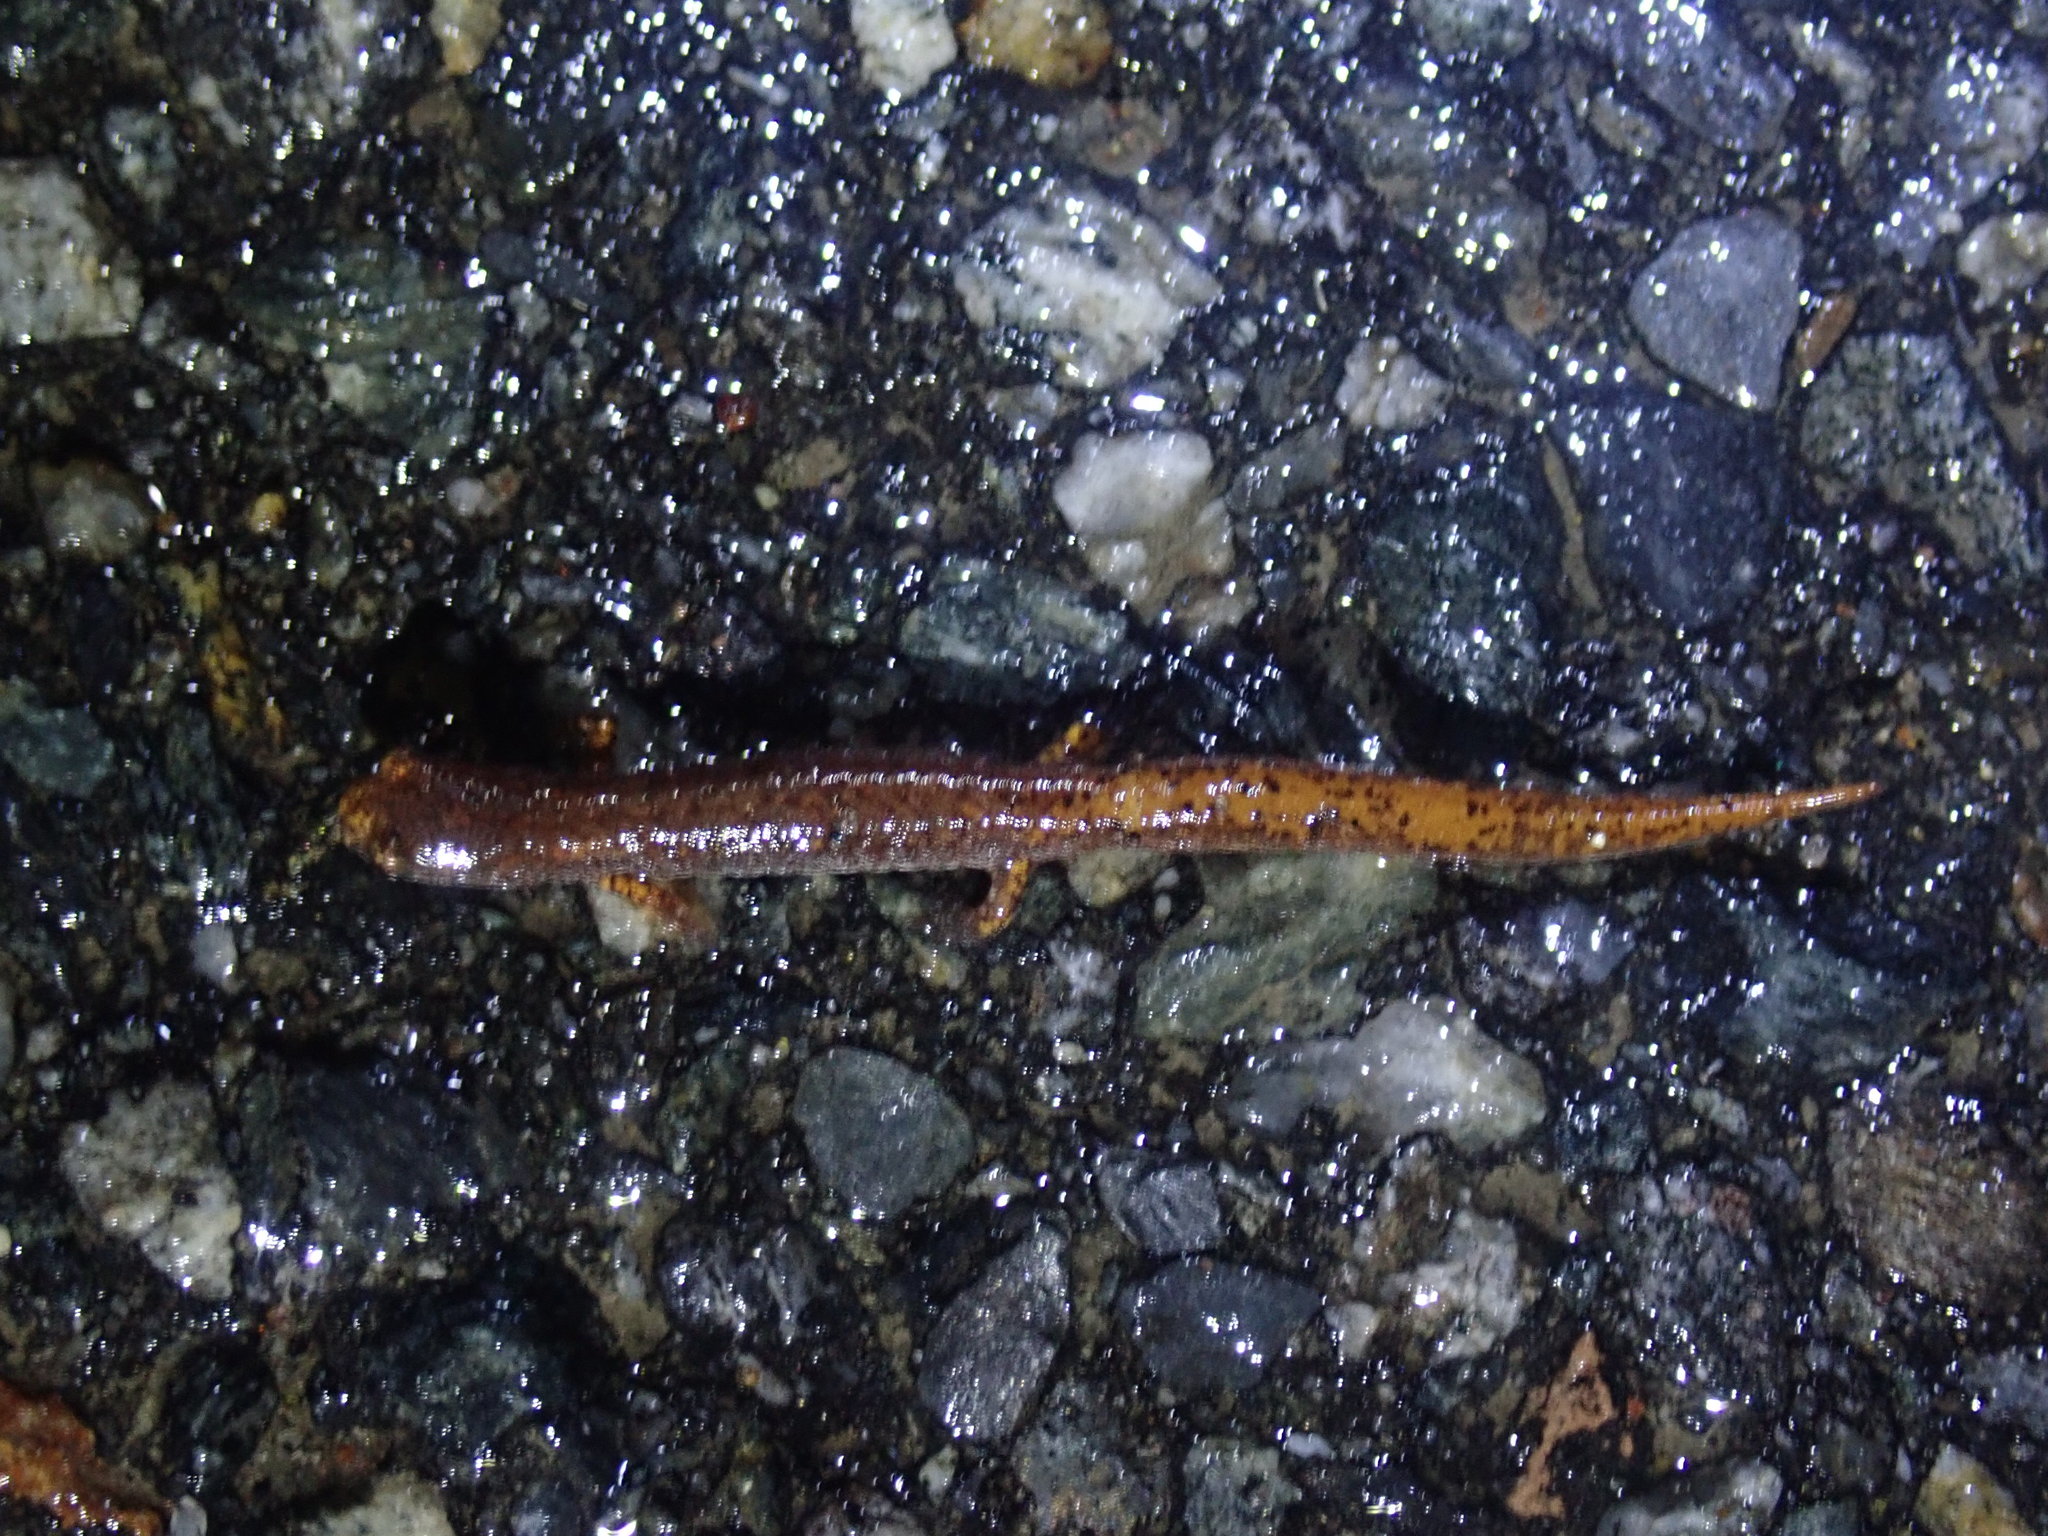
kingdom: Animalia
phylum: Chordata
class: Amphibia
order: Caudata
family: Plethodontidae
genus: Hemidactylium
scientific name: Hemidactylium scutatum
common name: Four-toed salamander
